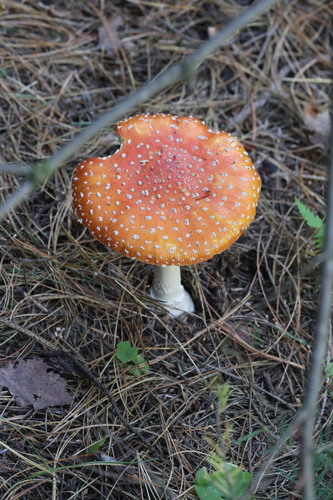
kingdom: Fungi
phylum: Basidiomycota
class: Agaricomycetes
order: Agaricales
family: Amanitaceae
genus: Amanita
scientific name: Amanita muscaria
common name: Fly agaric
